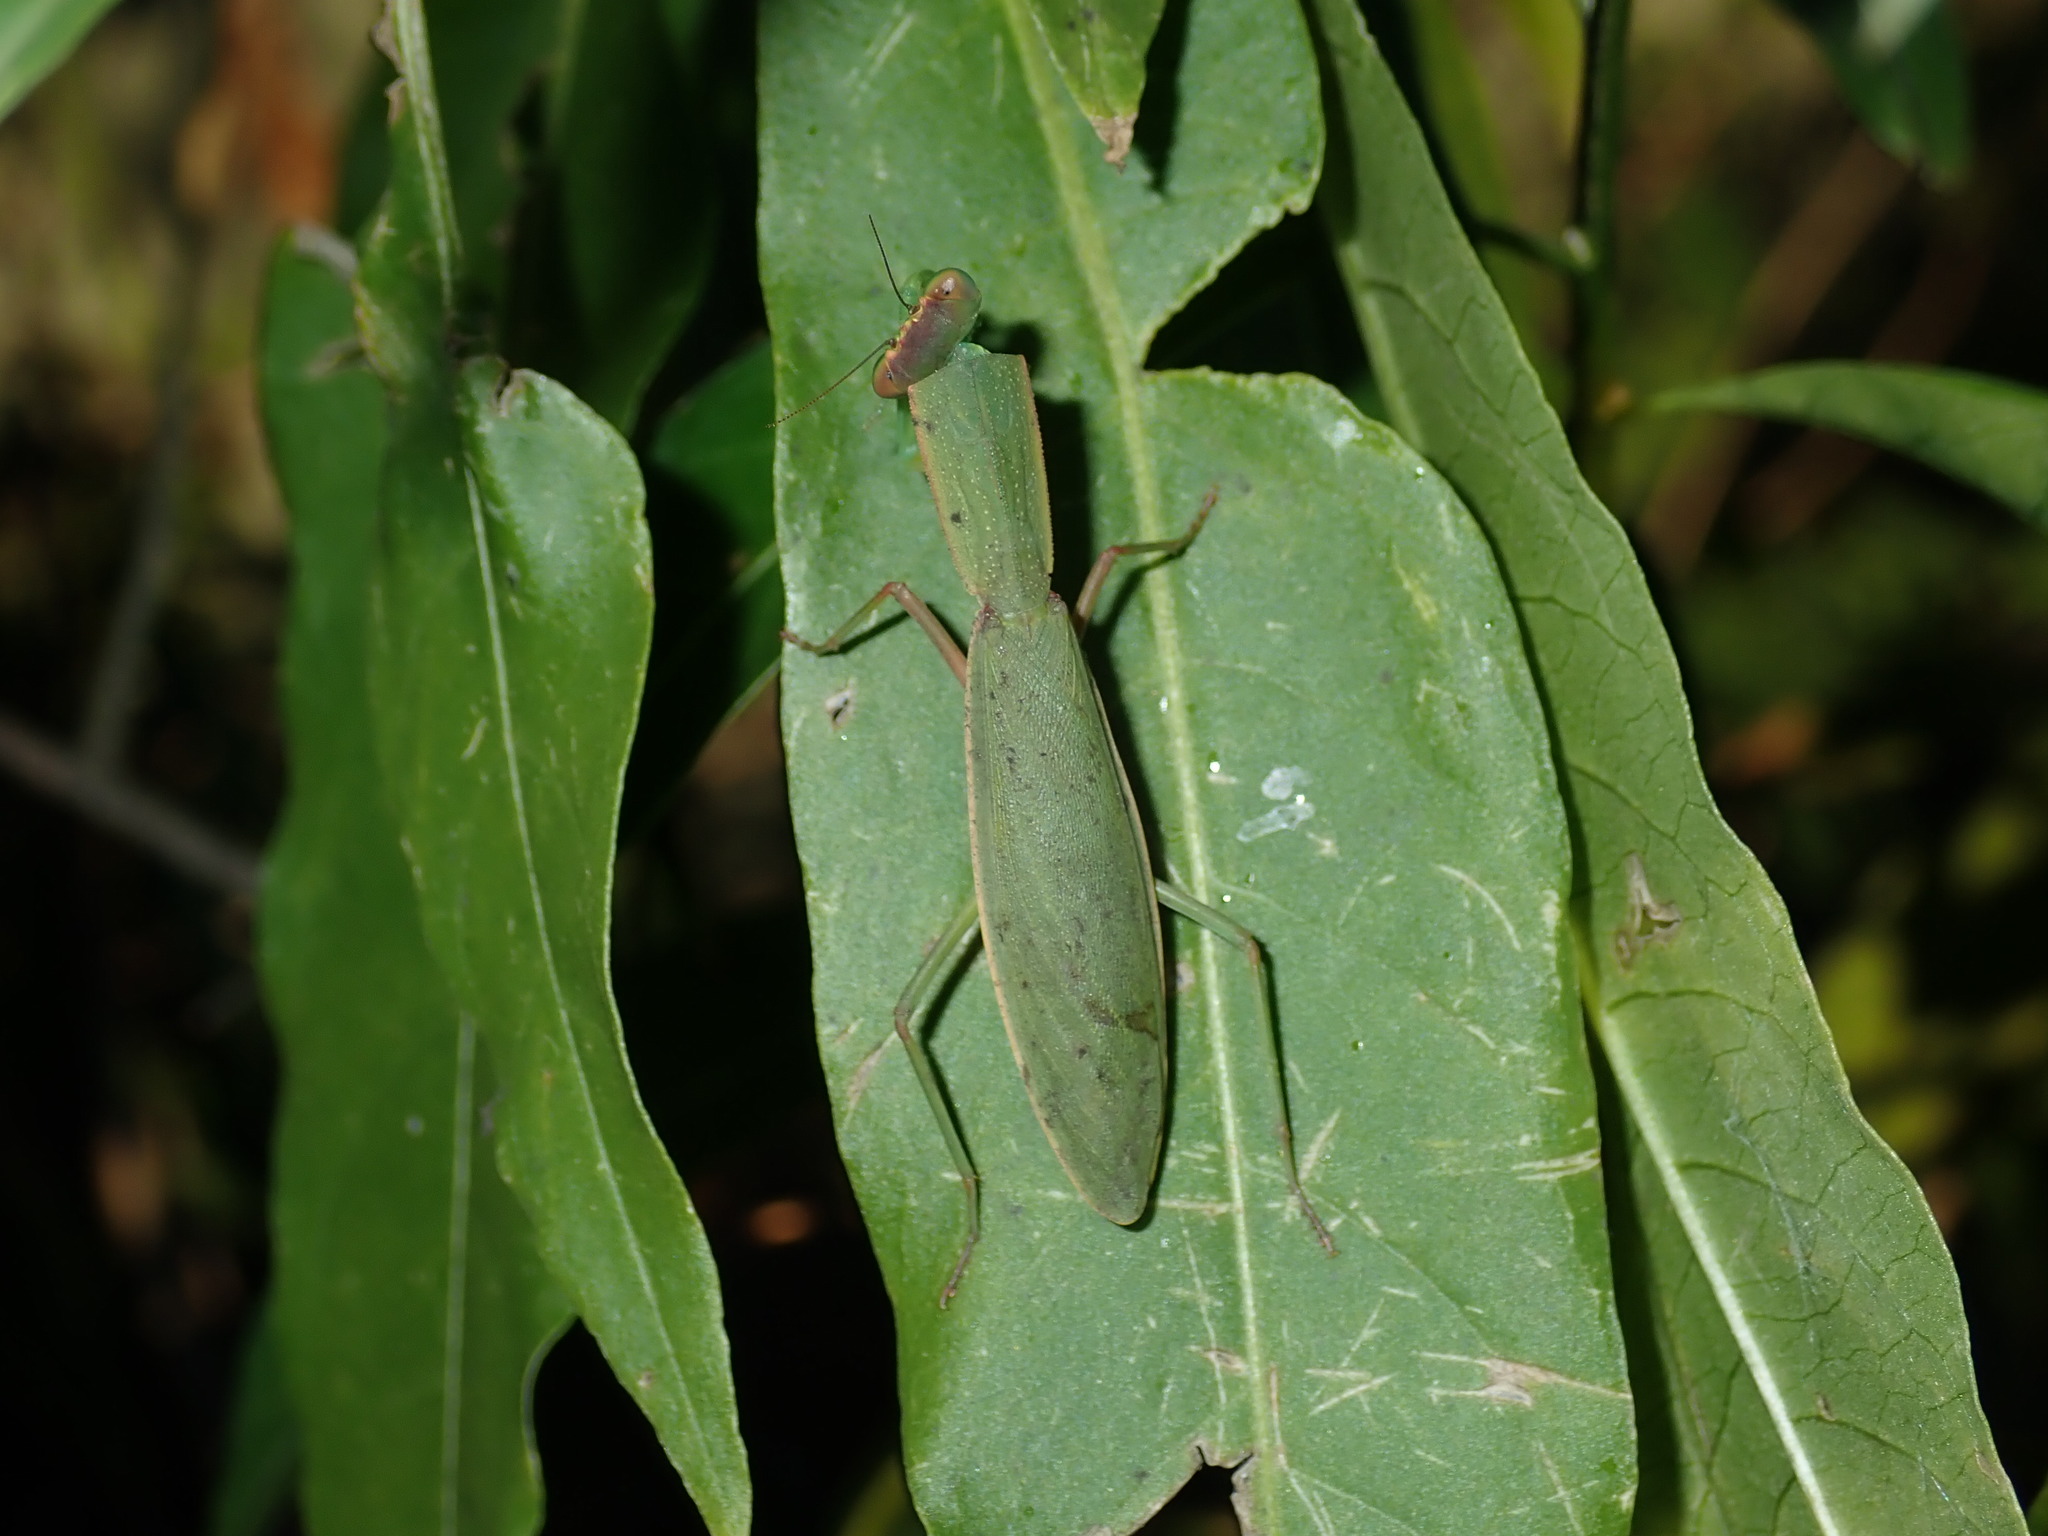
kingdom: Animalia
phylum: Arthropoda
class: Insecta
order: Mantodea
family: Mantidae
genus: Orthodera
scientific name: Orthodera ministralis
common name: Mantis
